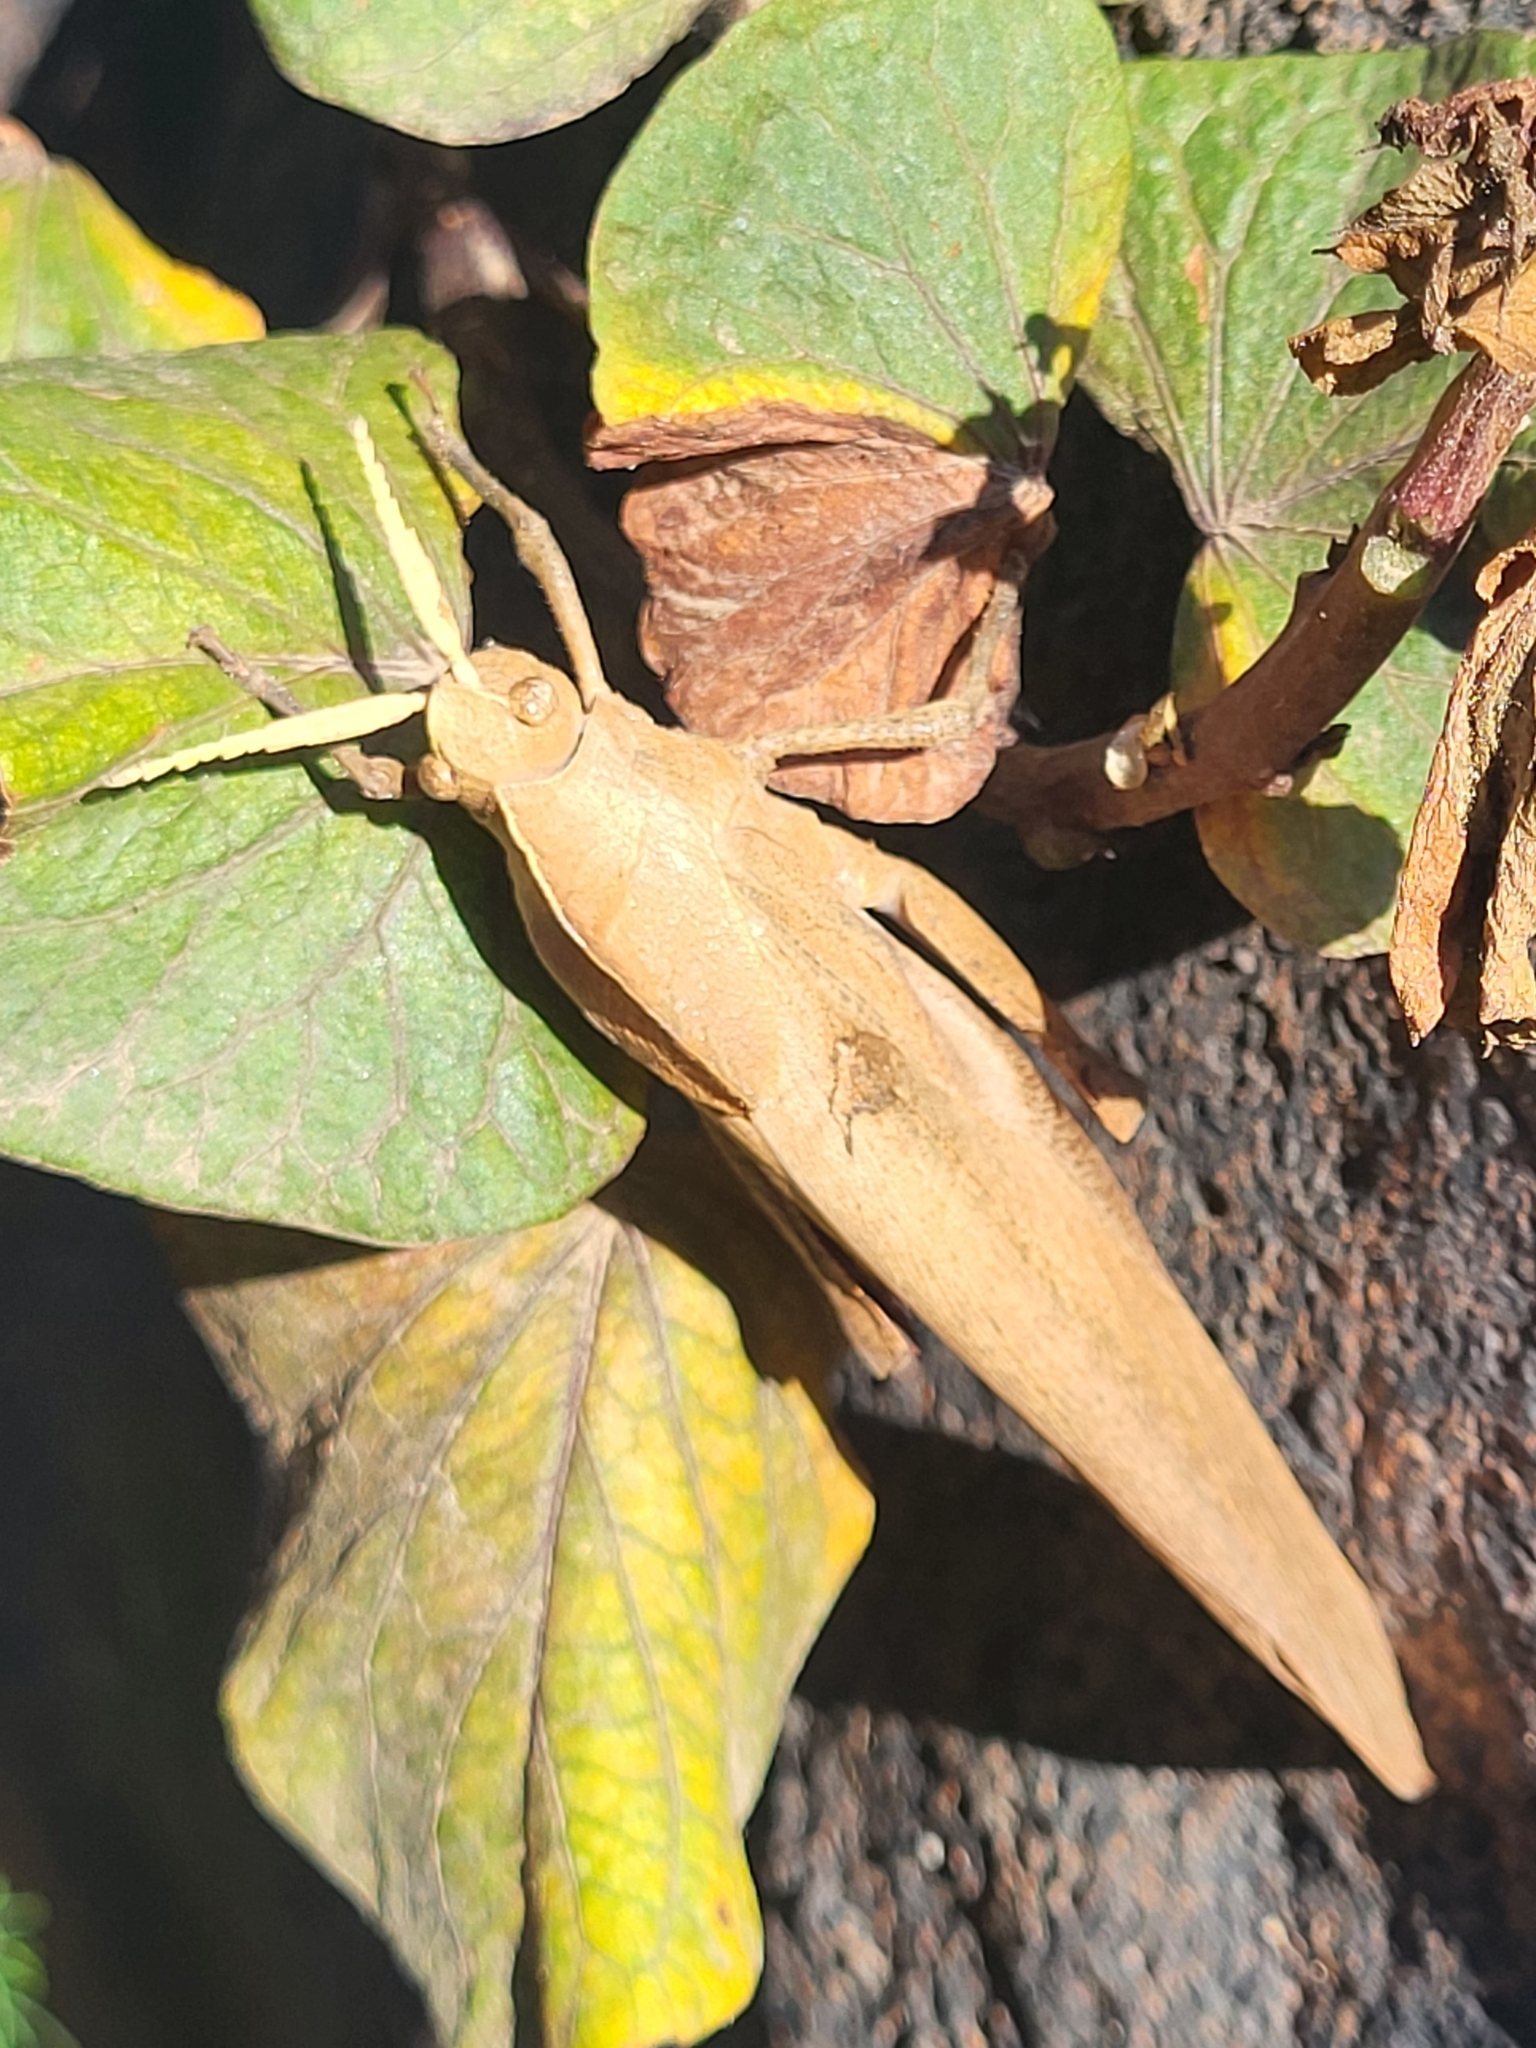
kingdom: Animalia
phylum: Arthropoda
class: Insecta
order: Orthoptera
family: Pamphagidae
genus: Lobosceliana
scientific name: Lobosceliana femoralis
